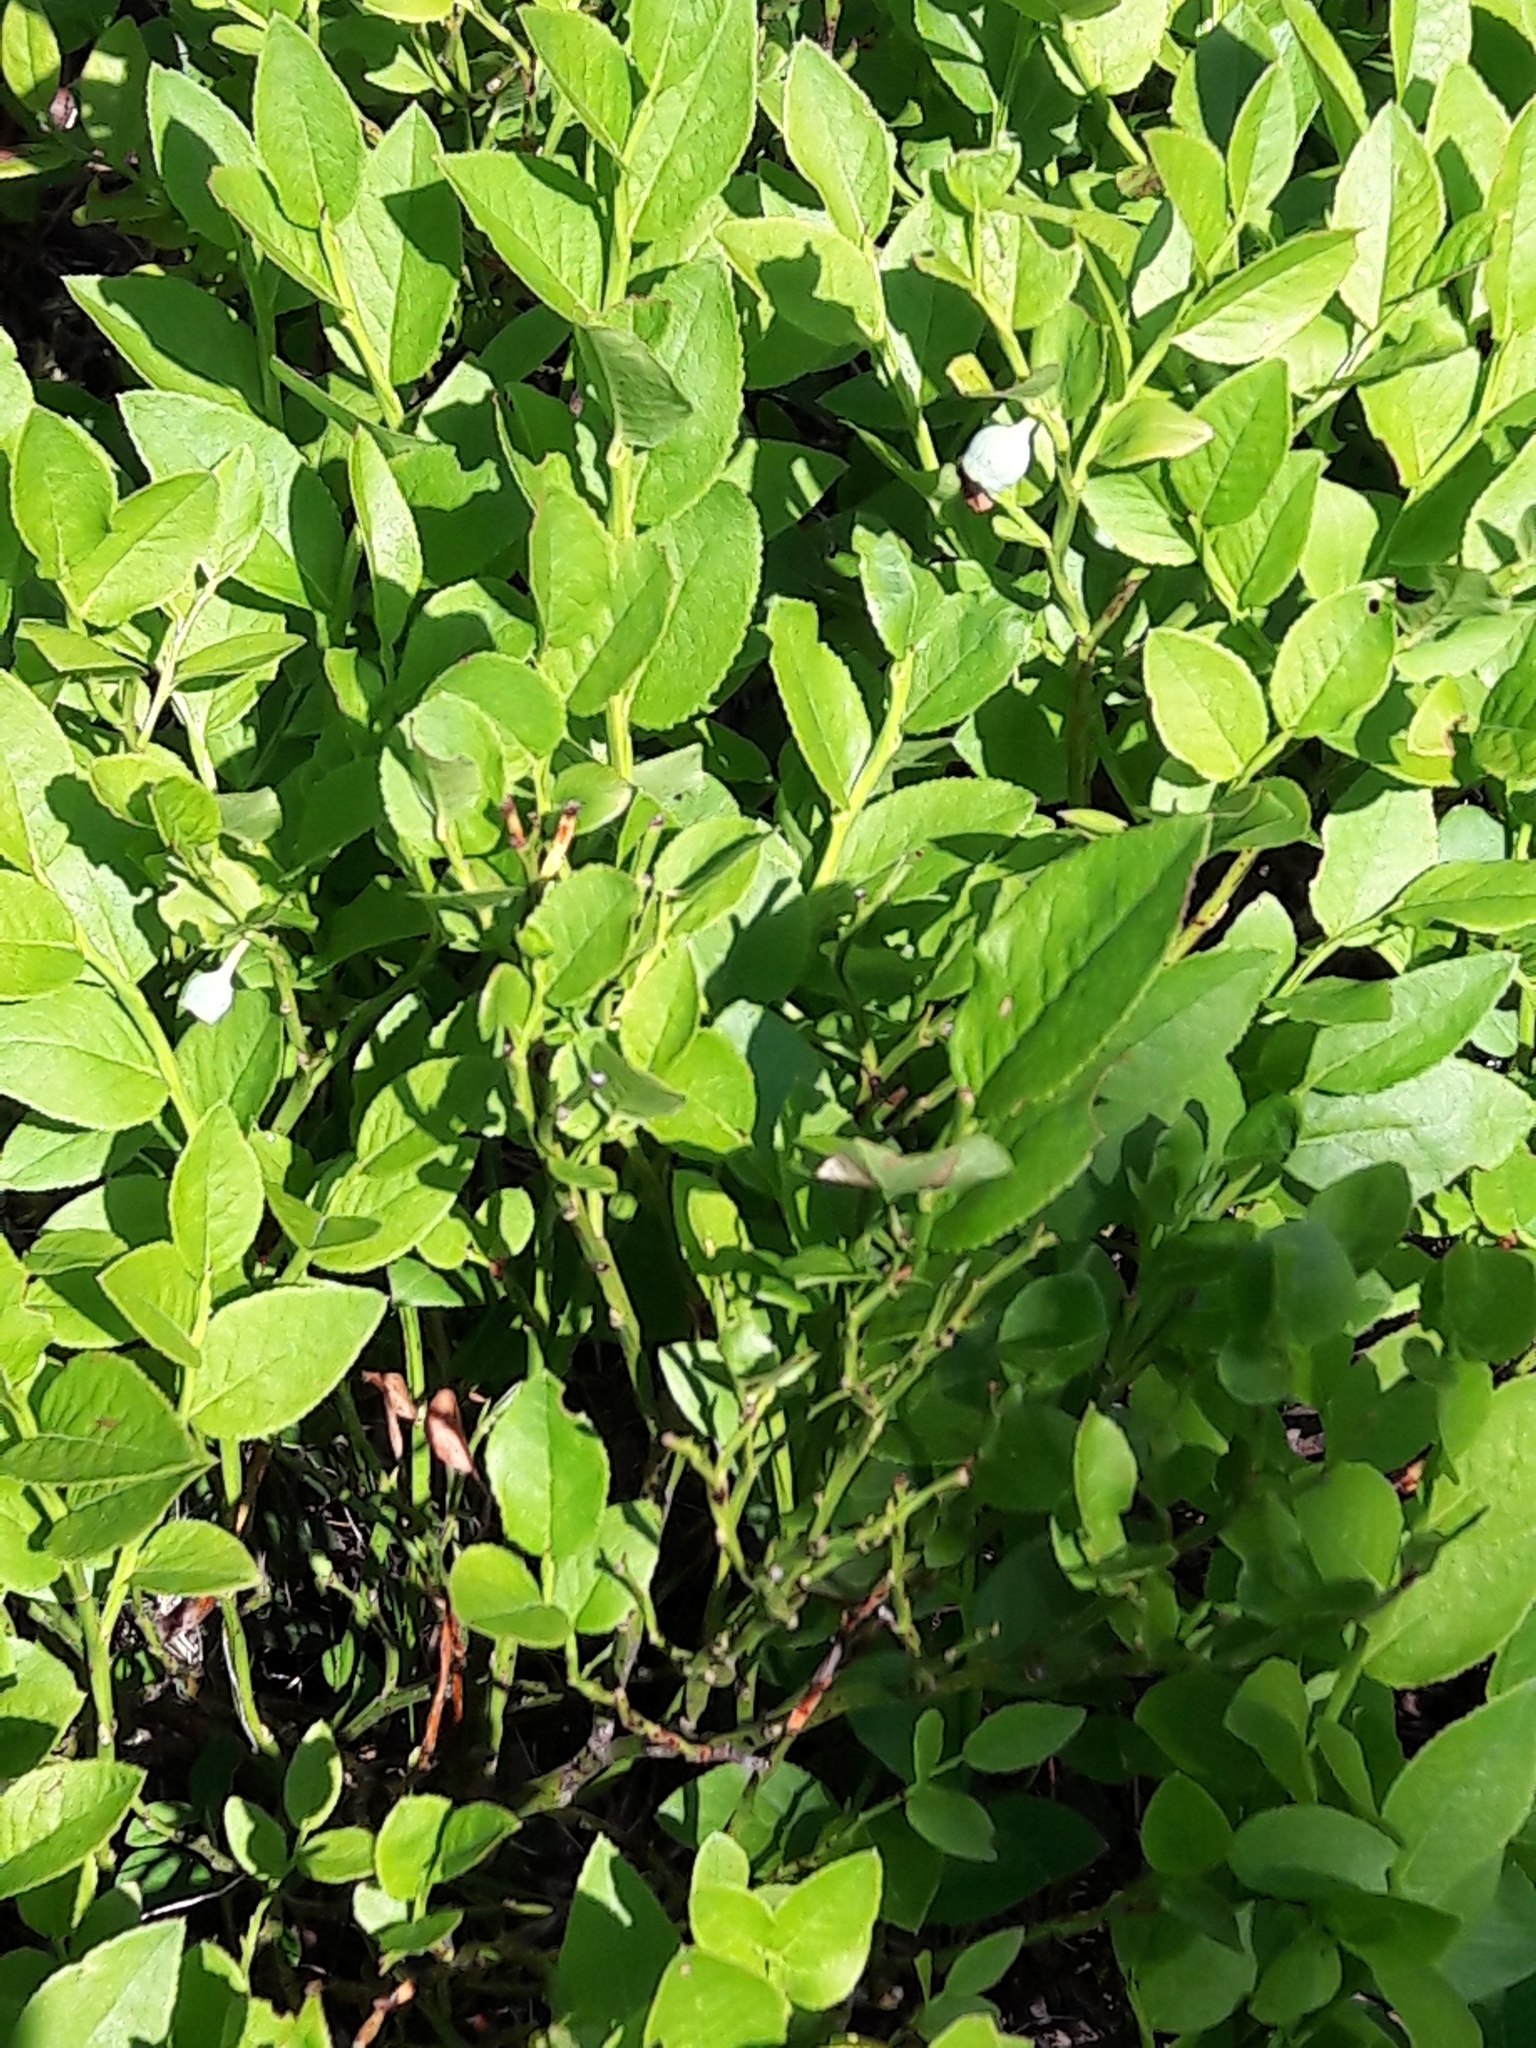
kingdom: Plantae
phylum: Tracheophyta
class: Magnoliopsida
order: Ericales
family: Ericaceae
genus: Vaccinium
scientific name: Vaccinium myrtillus
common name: Bilberry
